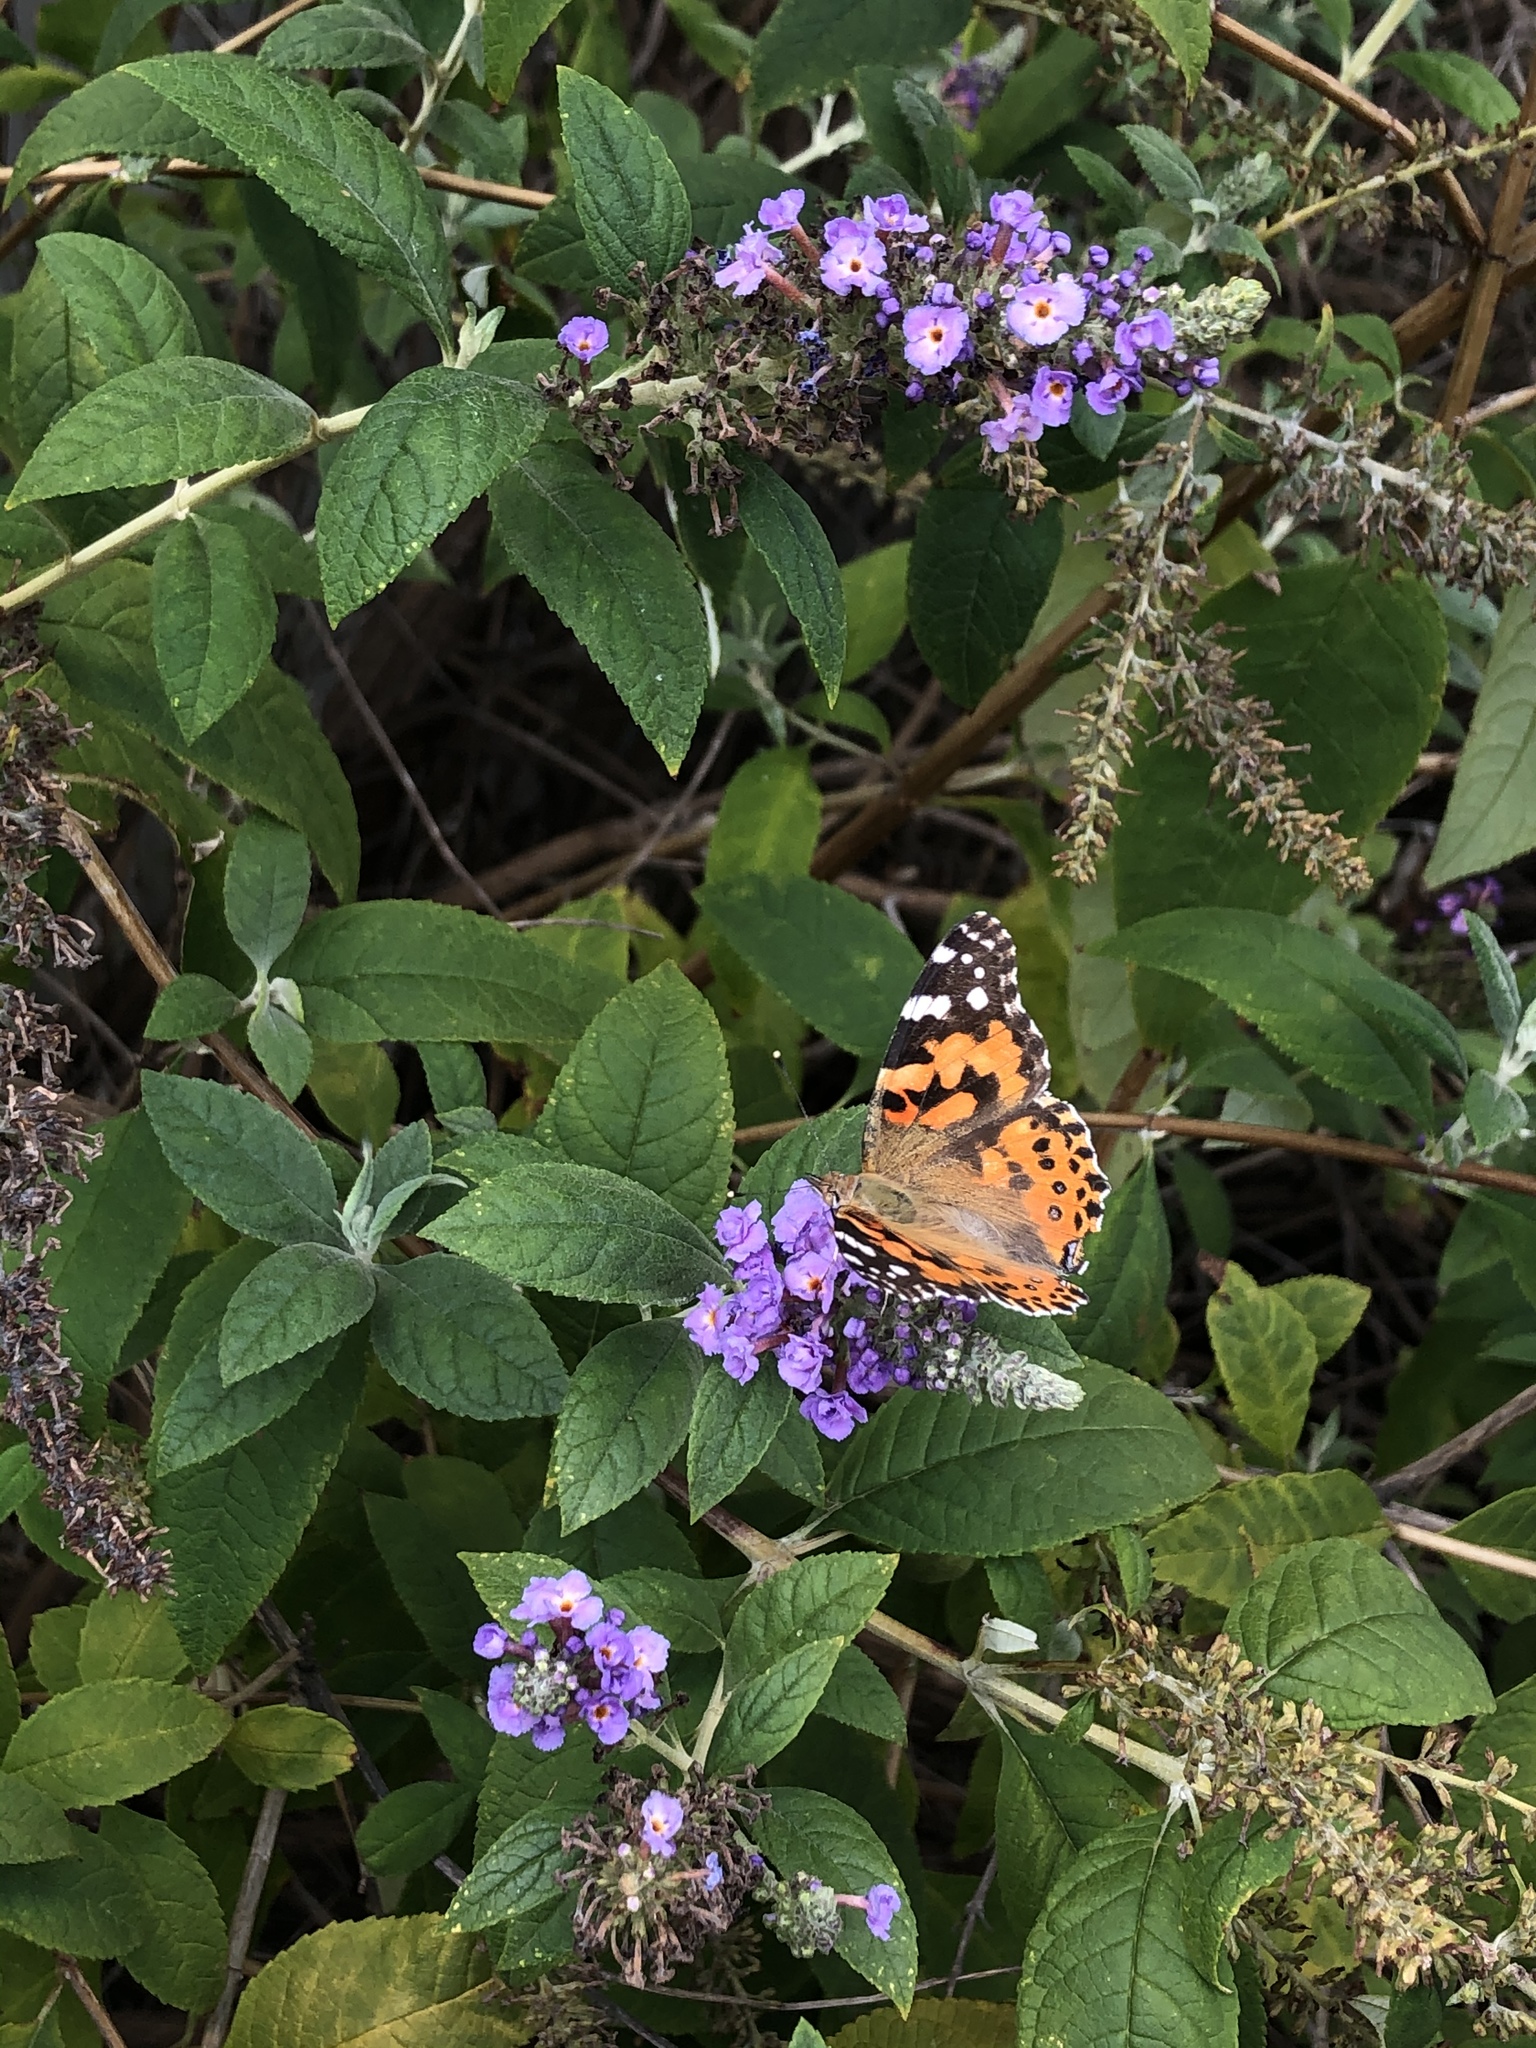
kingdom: Animalia
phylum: Arthropoda
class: Insecta
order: Lepidoptera
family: Nymphalidae
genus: Vanessa
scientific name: Vanessa cardui
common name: Painted lady
